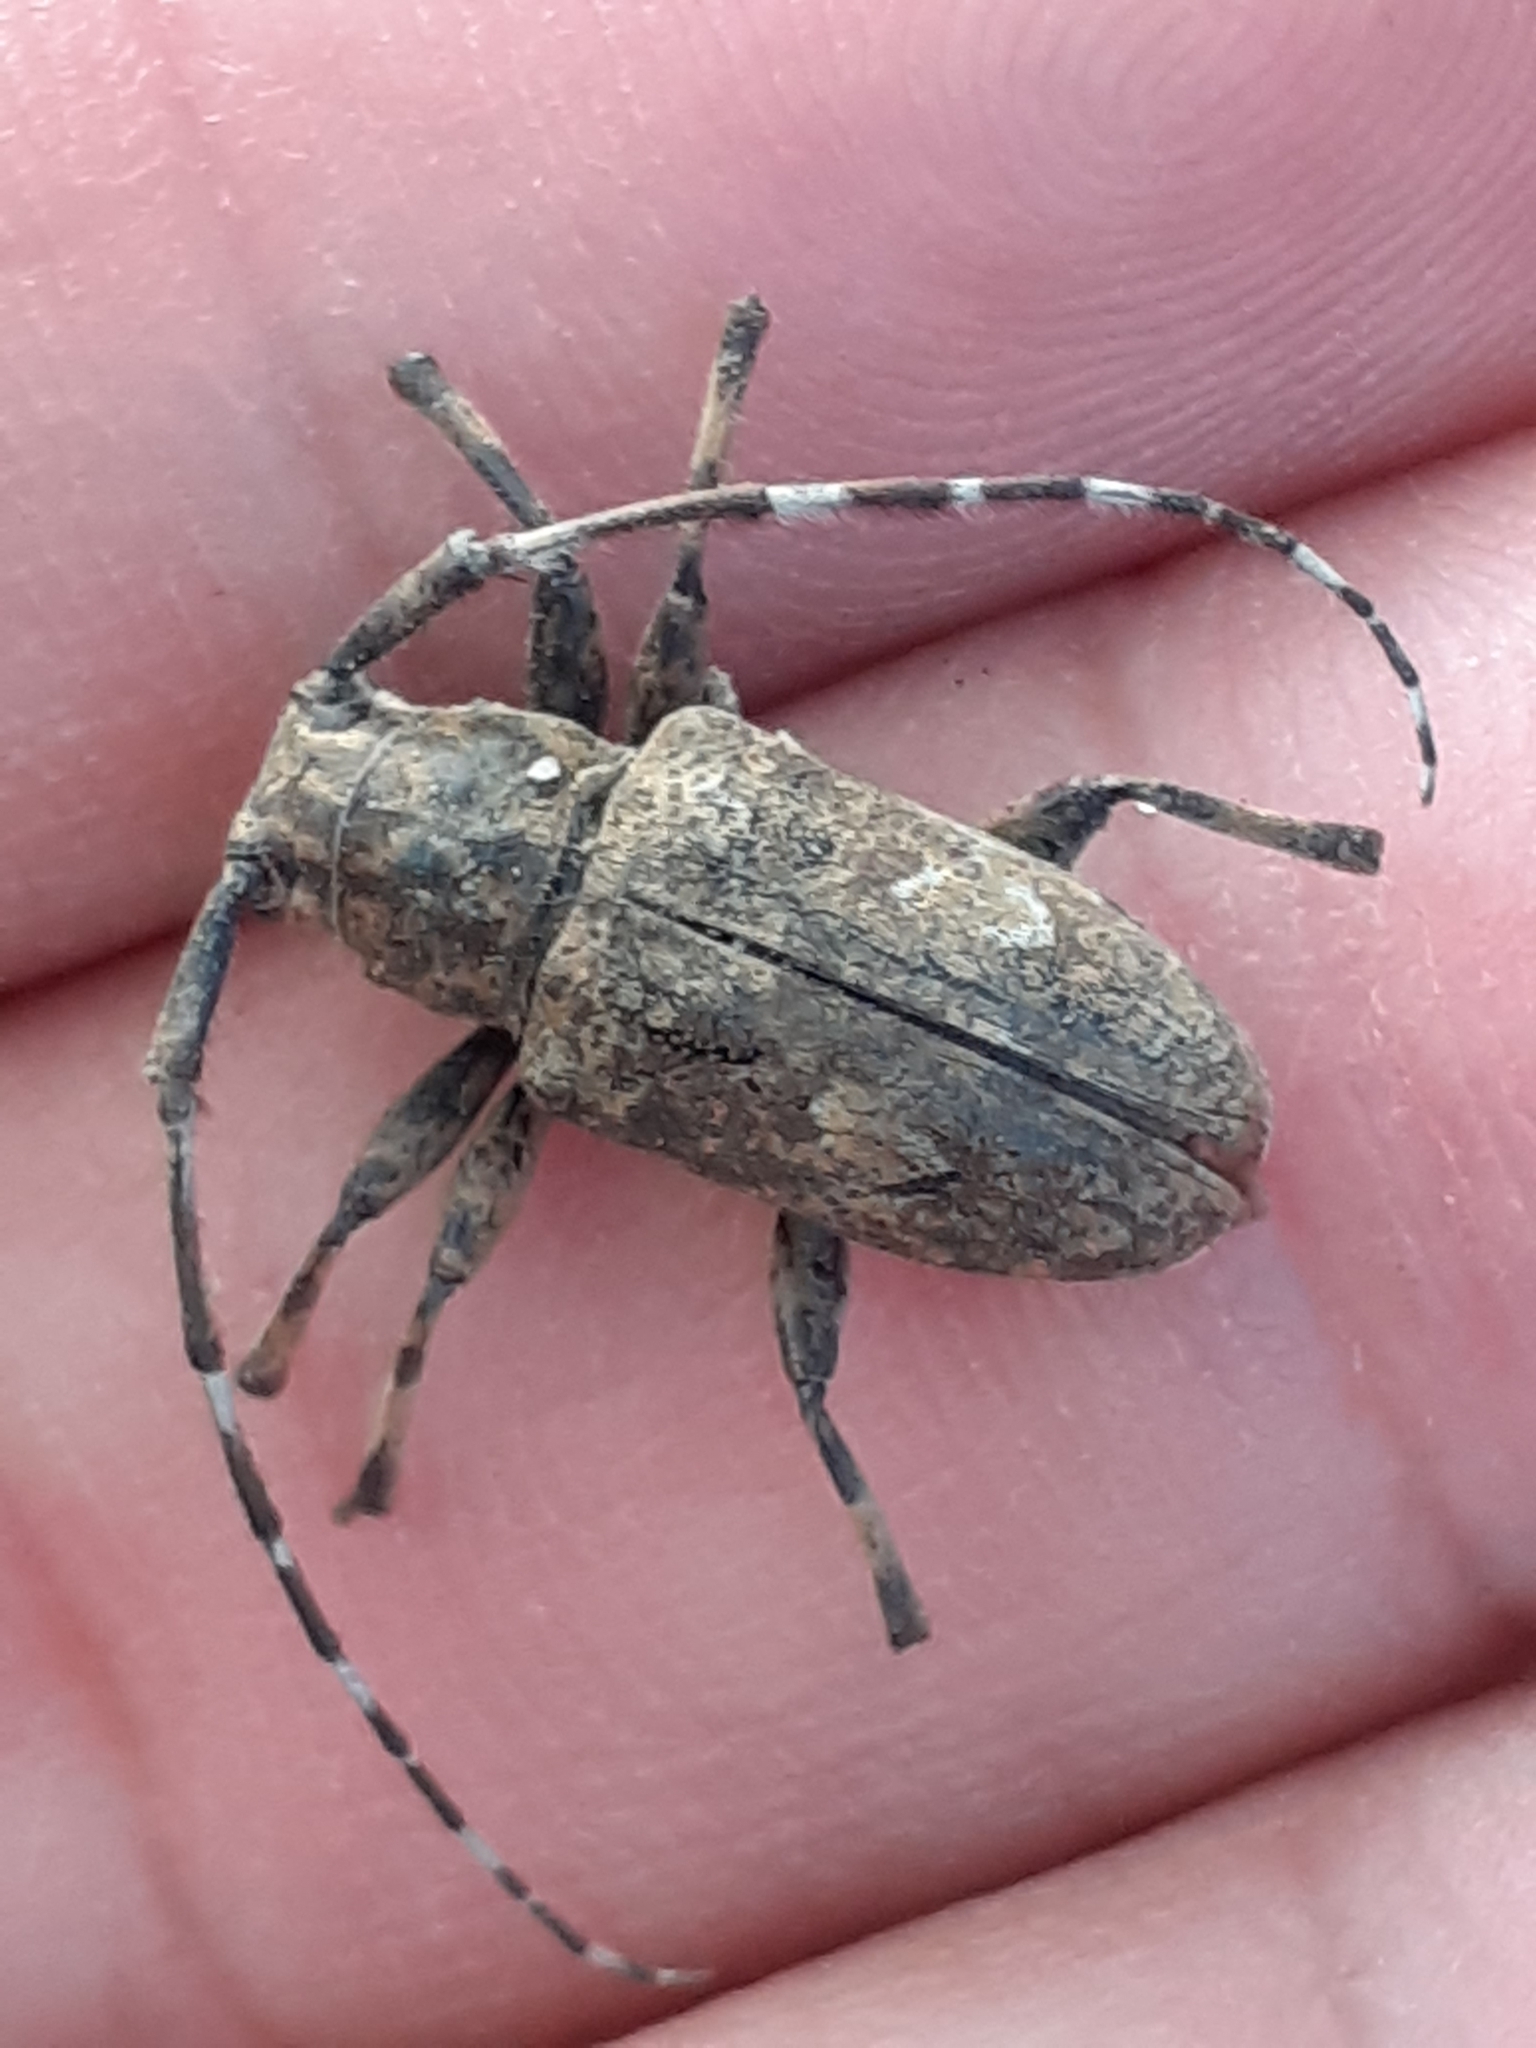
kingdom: Animalia
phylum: Arthropoda
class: Insecta
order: Coleoptera
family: Cerambycidae
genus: Agelasta
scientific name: Agelasta perplexa
